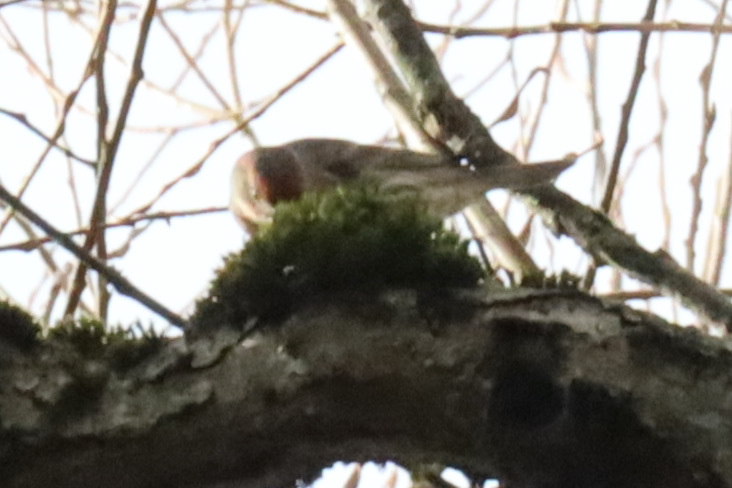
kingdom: Animalia
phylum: Chordata
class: Aves
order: Passeriformes
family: Fringillidae
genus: Haemorhous
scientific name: Haemorhous mexicanus
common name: House finch
